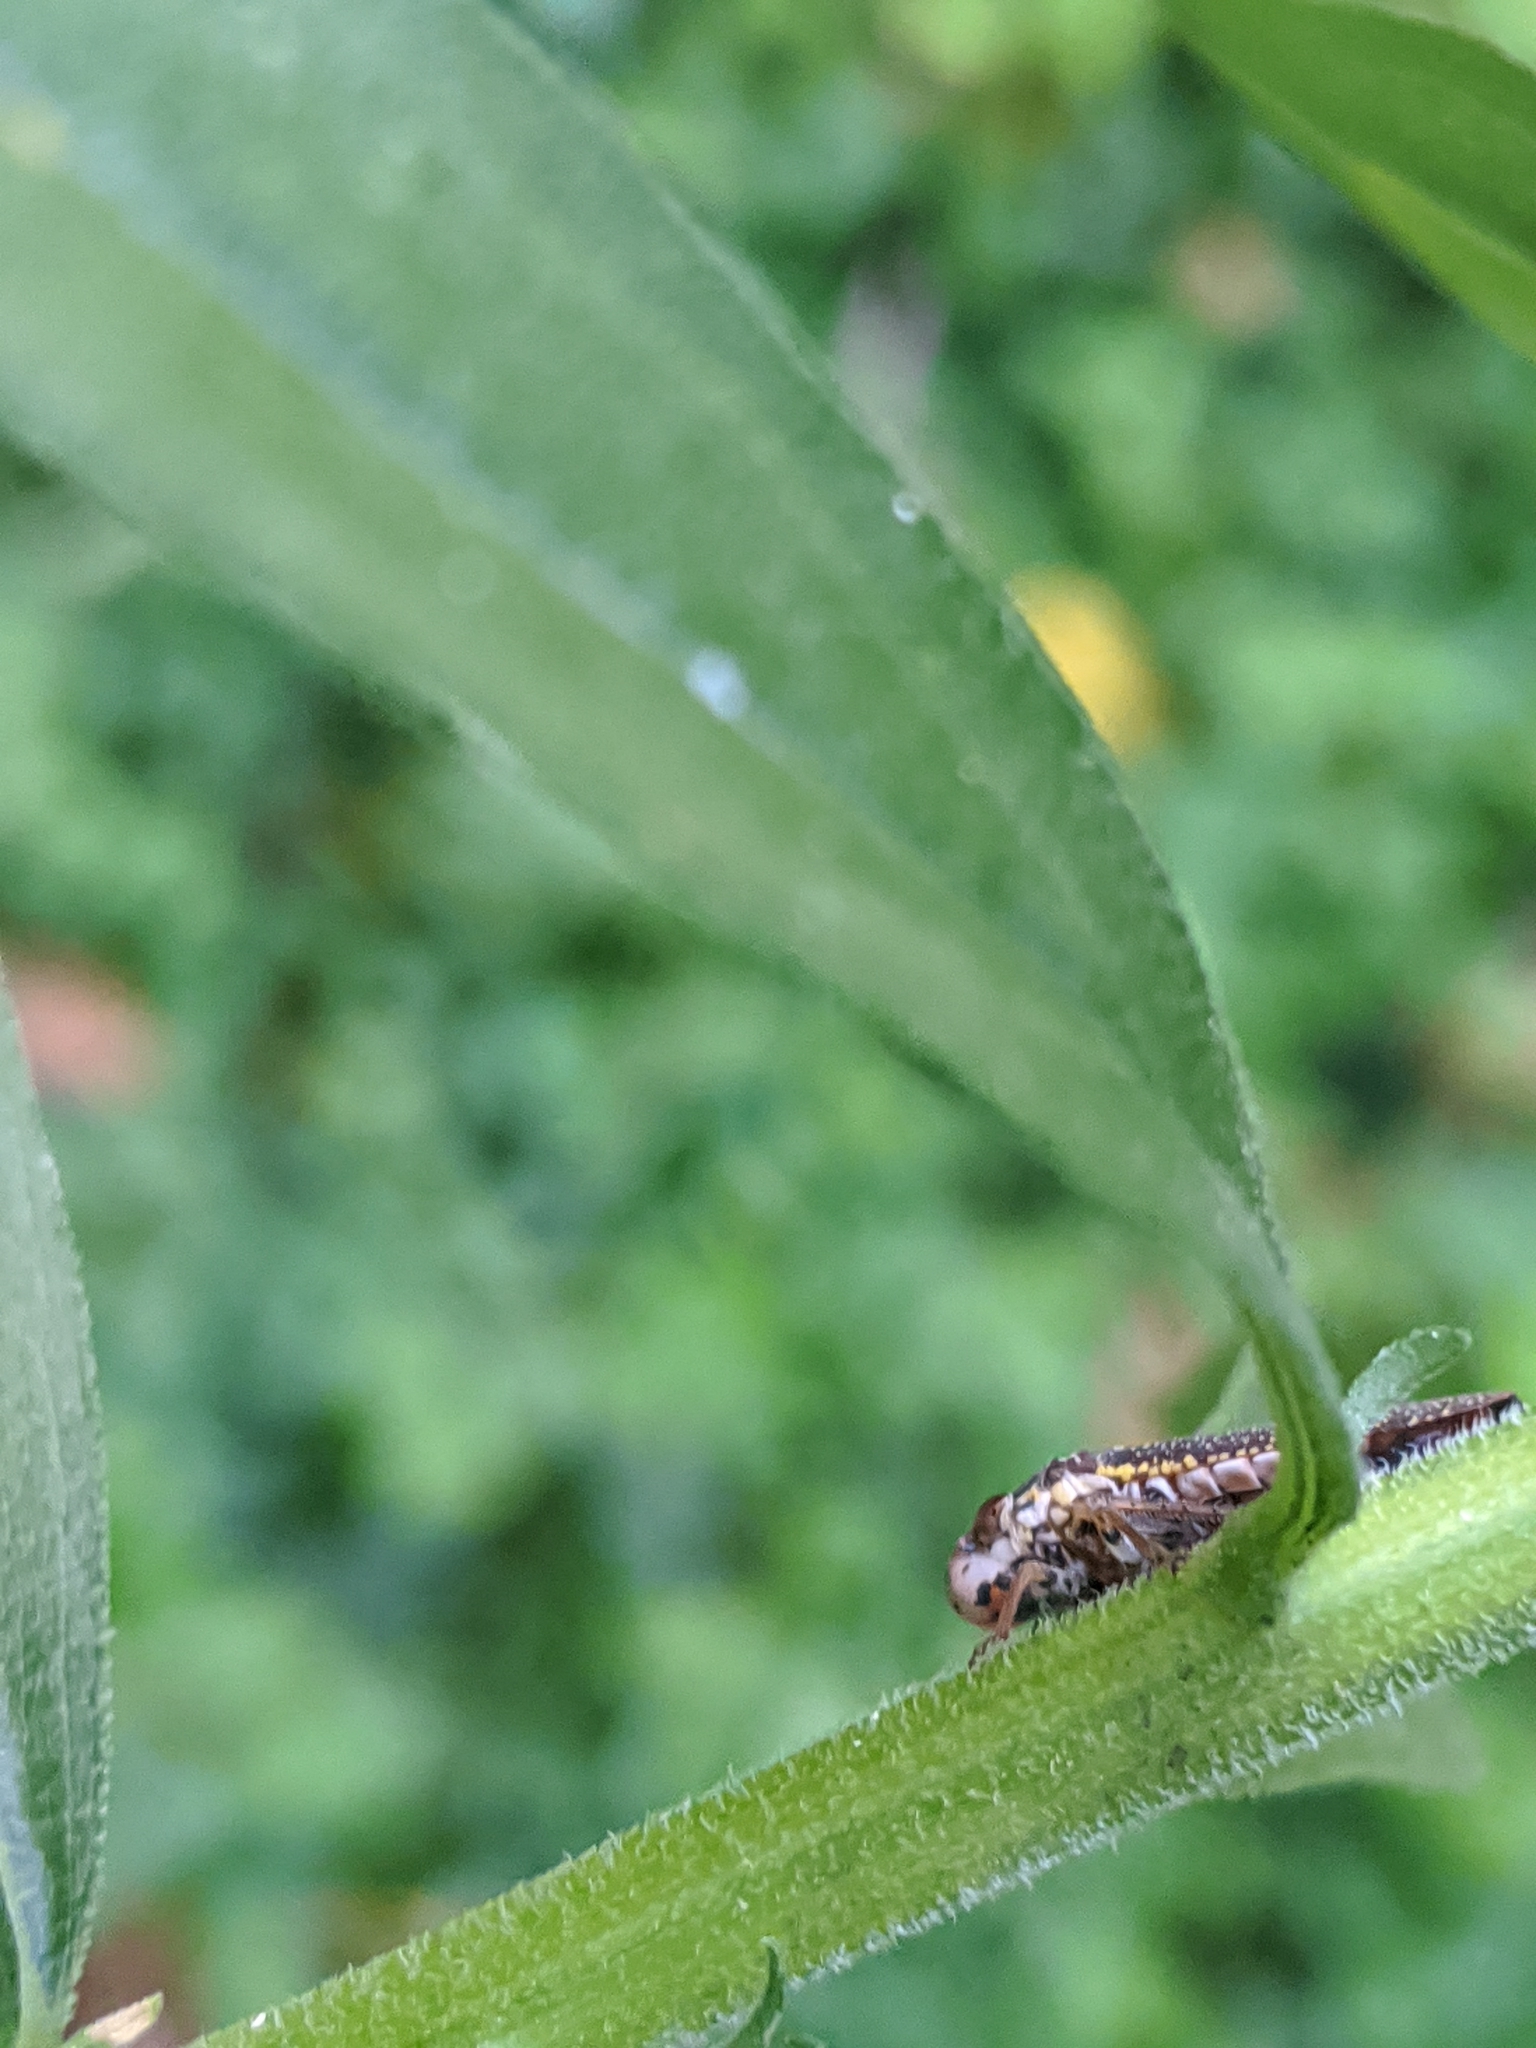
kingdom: Animalia
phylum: Arthropoda
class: Insecta
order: Hemiptera
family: Cicadellidae
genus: Paraulacizes
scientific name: Paraulacizes irrorata
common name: Speckled sharpshooter
